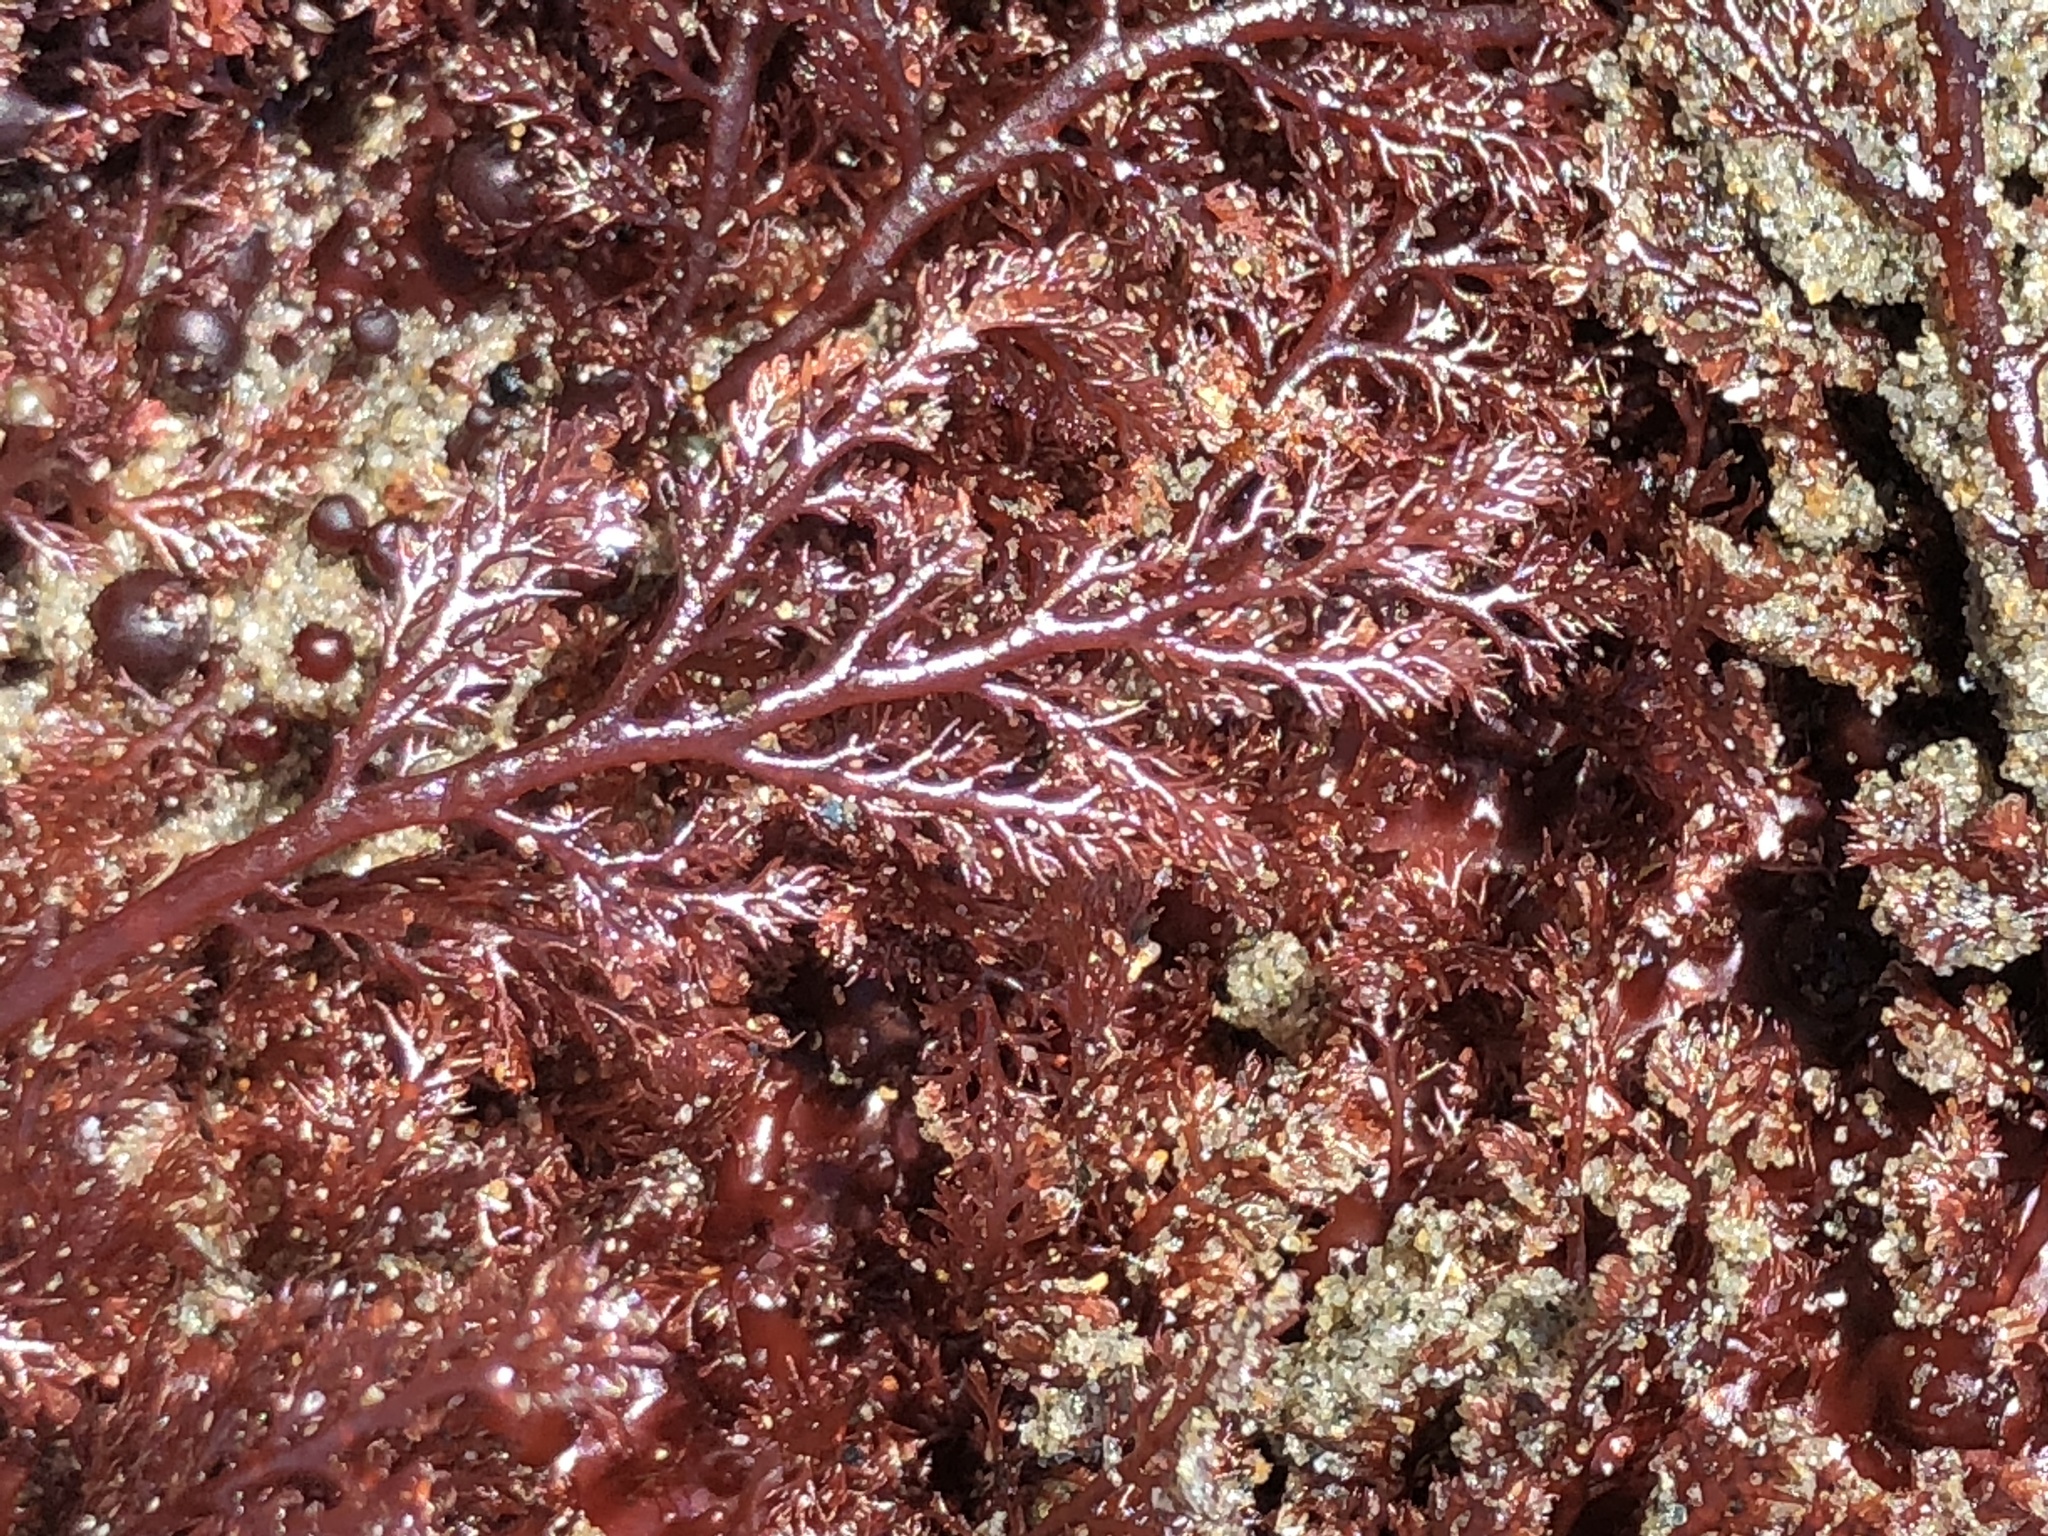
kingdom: Plantae
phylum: Rhodophyta
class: Florideophyceae
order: Ceramiales
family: Ceramiaceae
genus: Microcladia
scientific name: Microcladia coulteri
